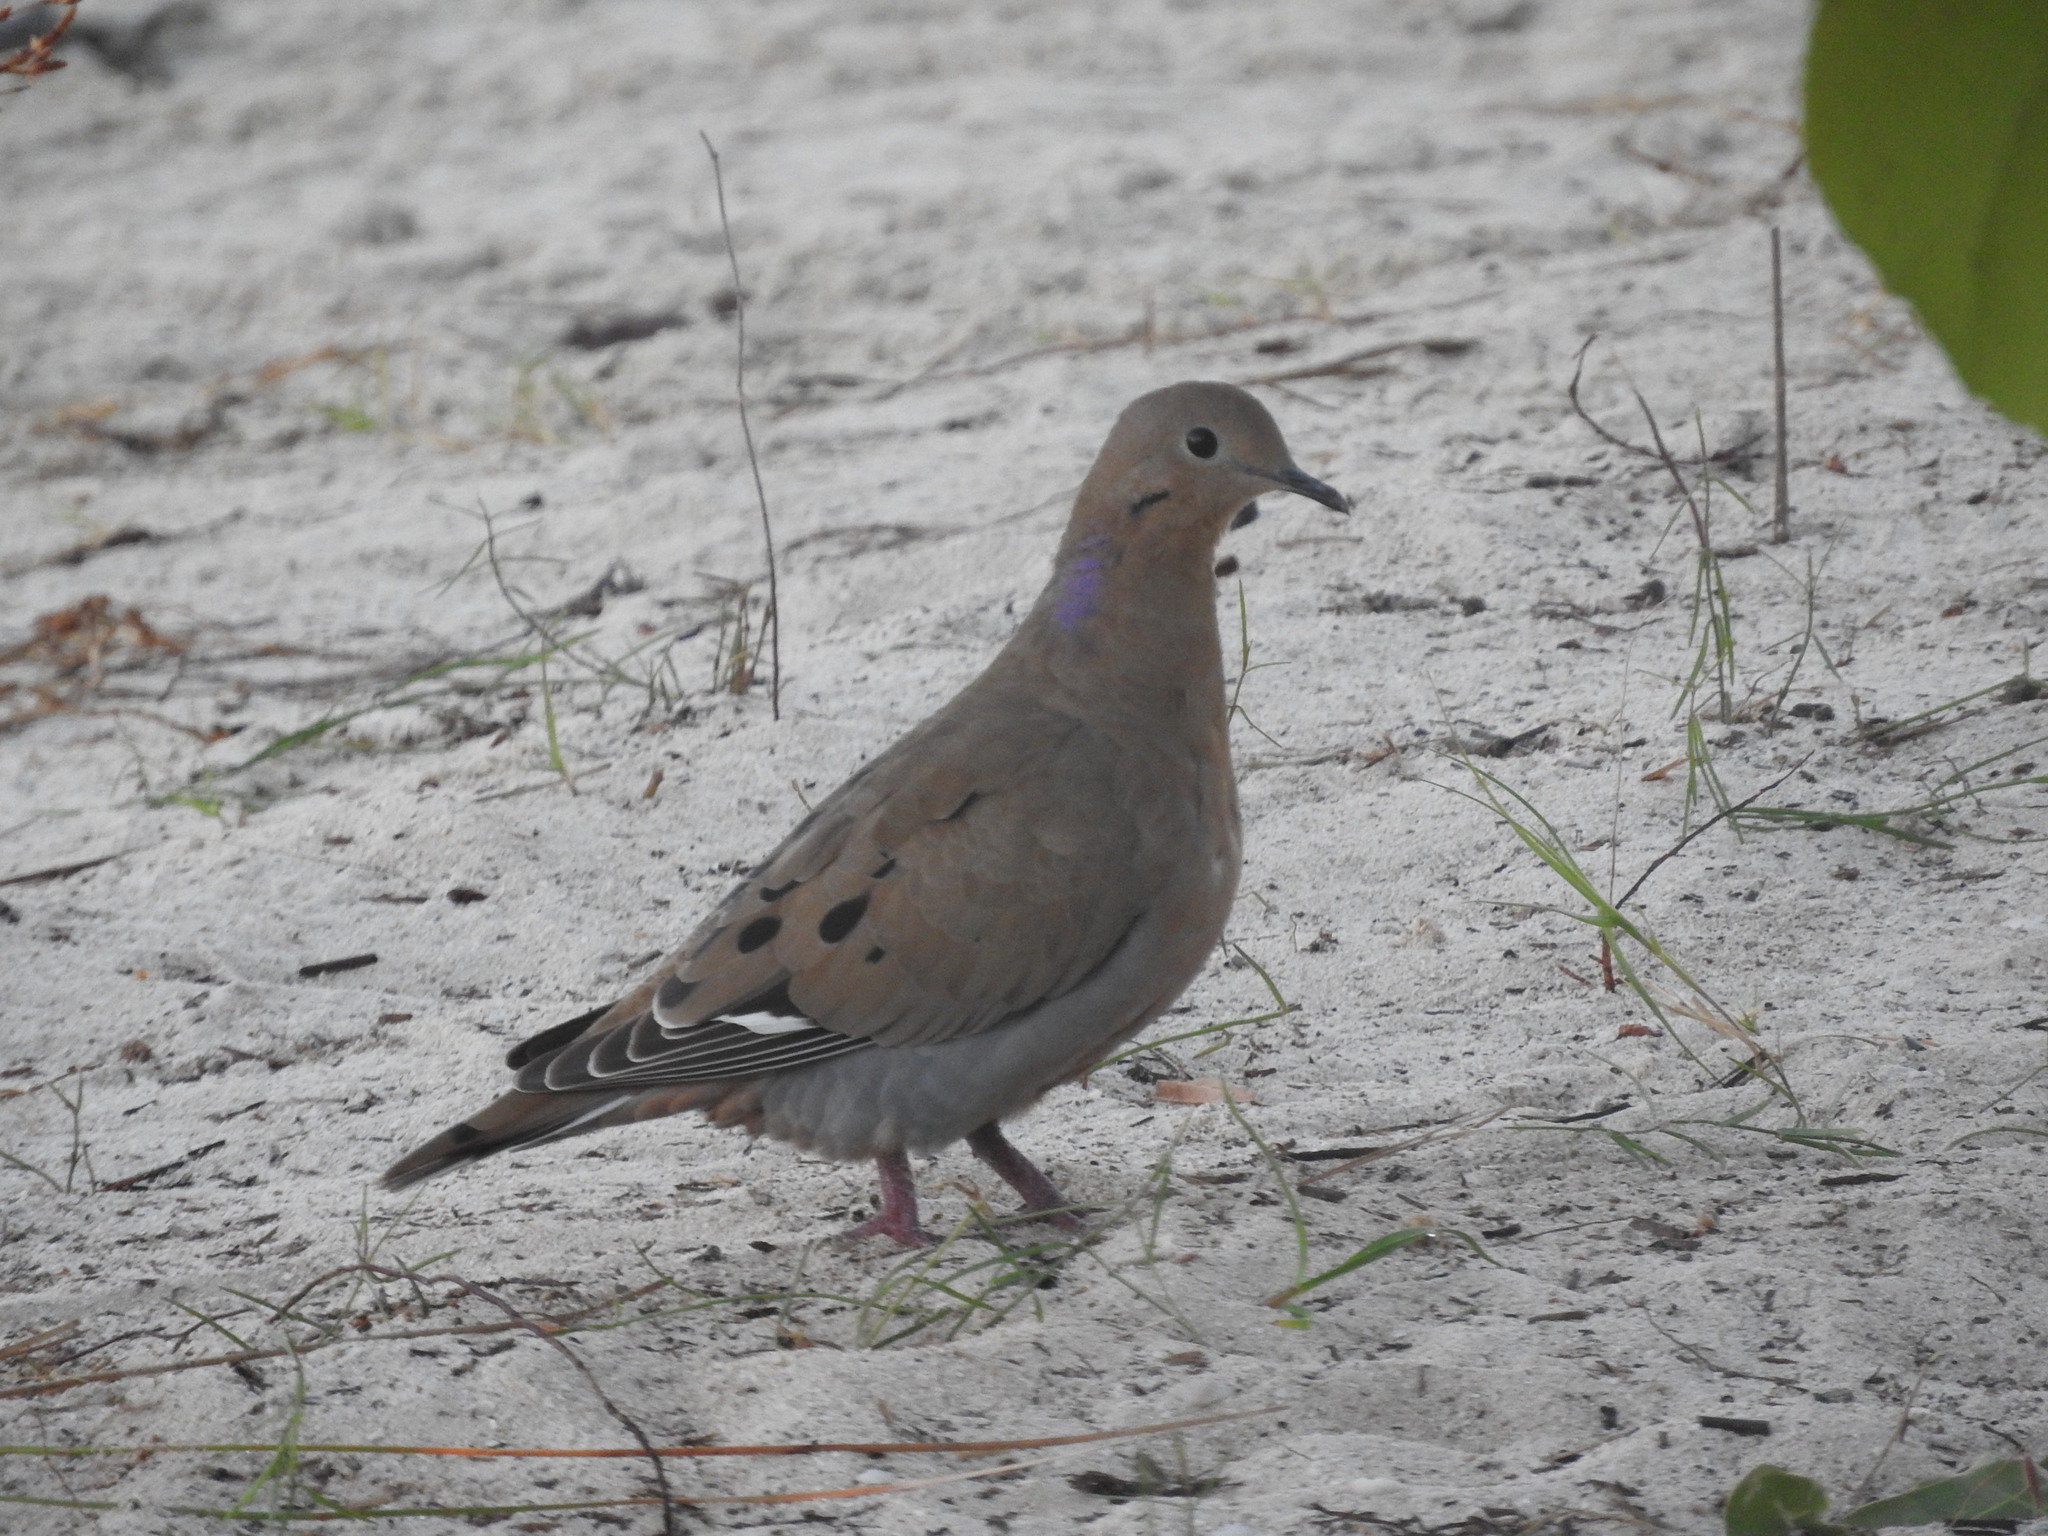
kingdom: Animalia
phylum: Chordata
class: Aves
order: Columbiformes
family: Columbidae
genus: Zenaida
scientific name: Zenaida aurita
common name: Zenaida dove
